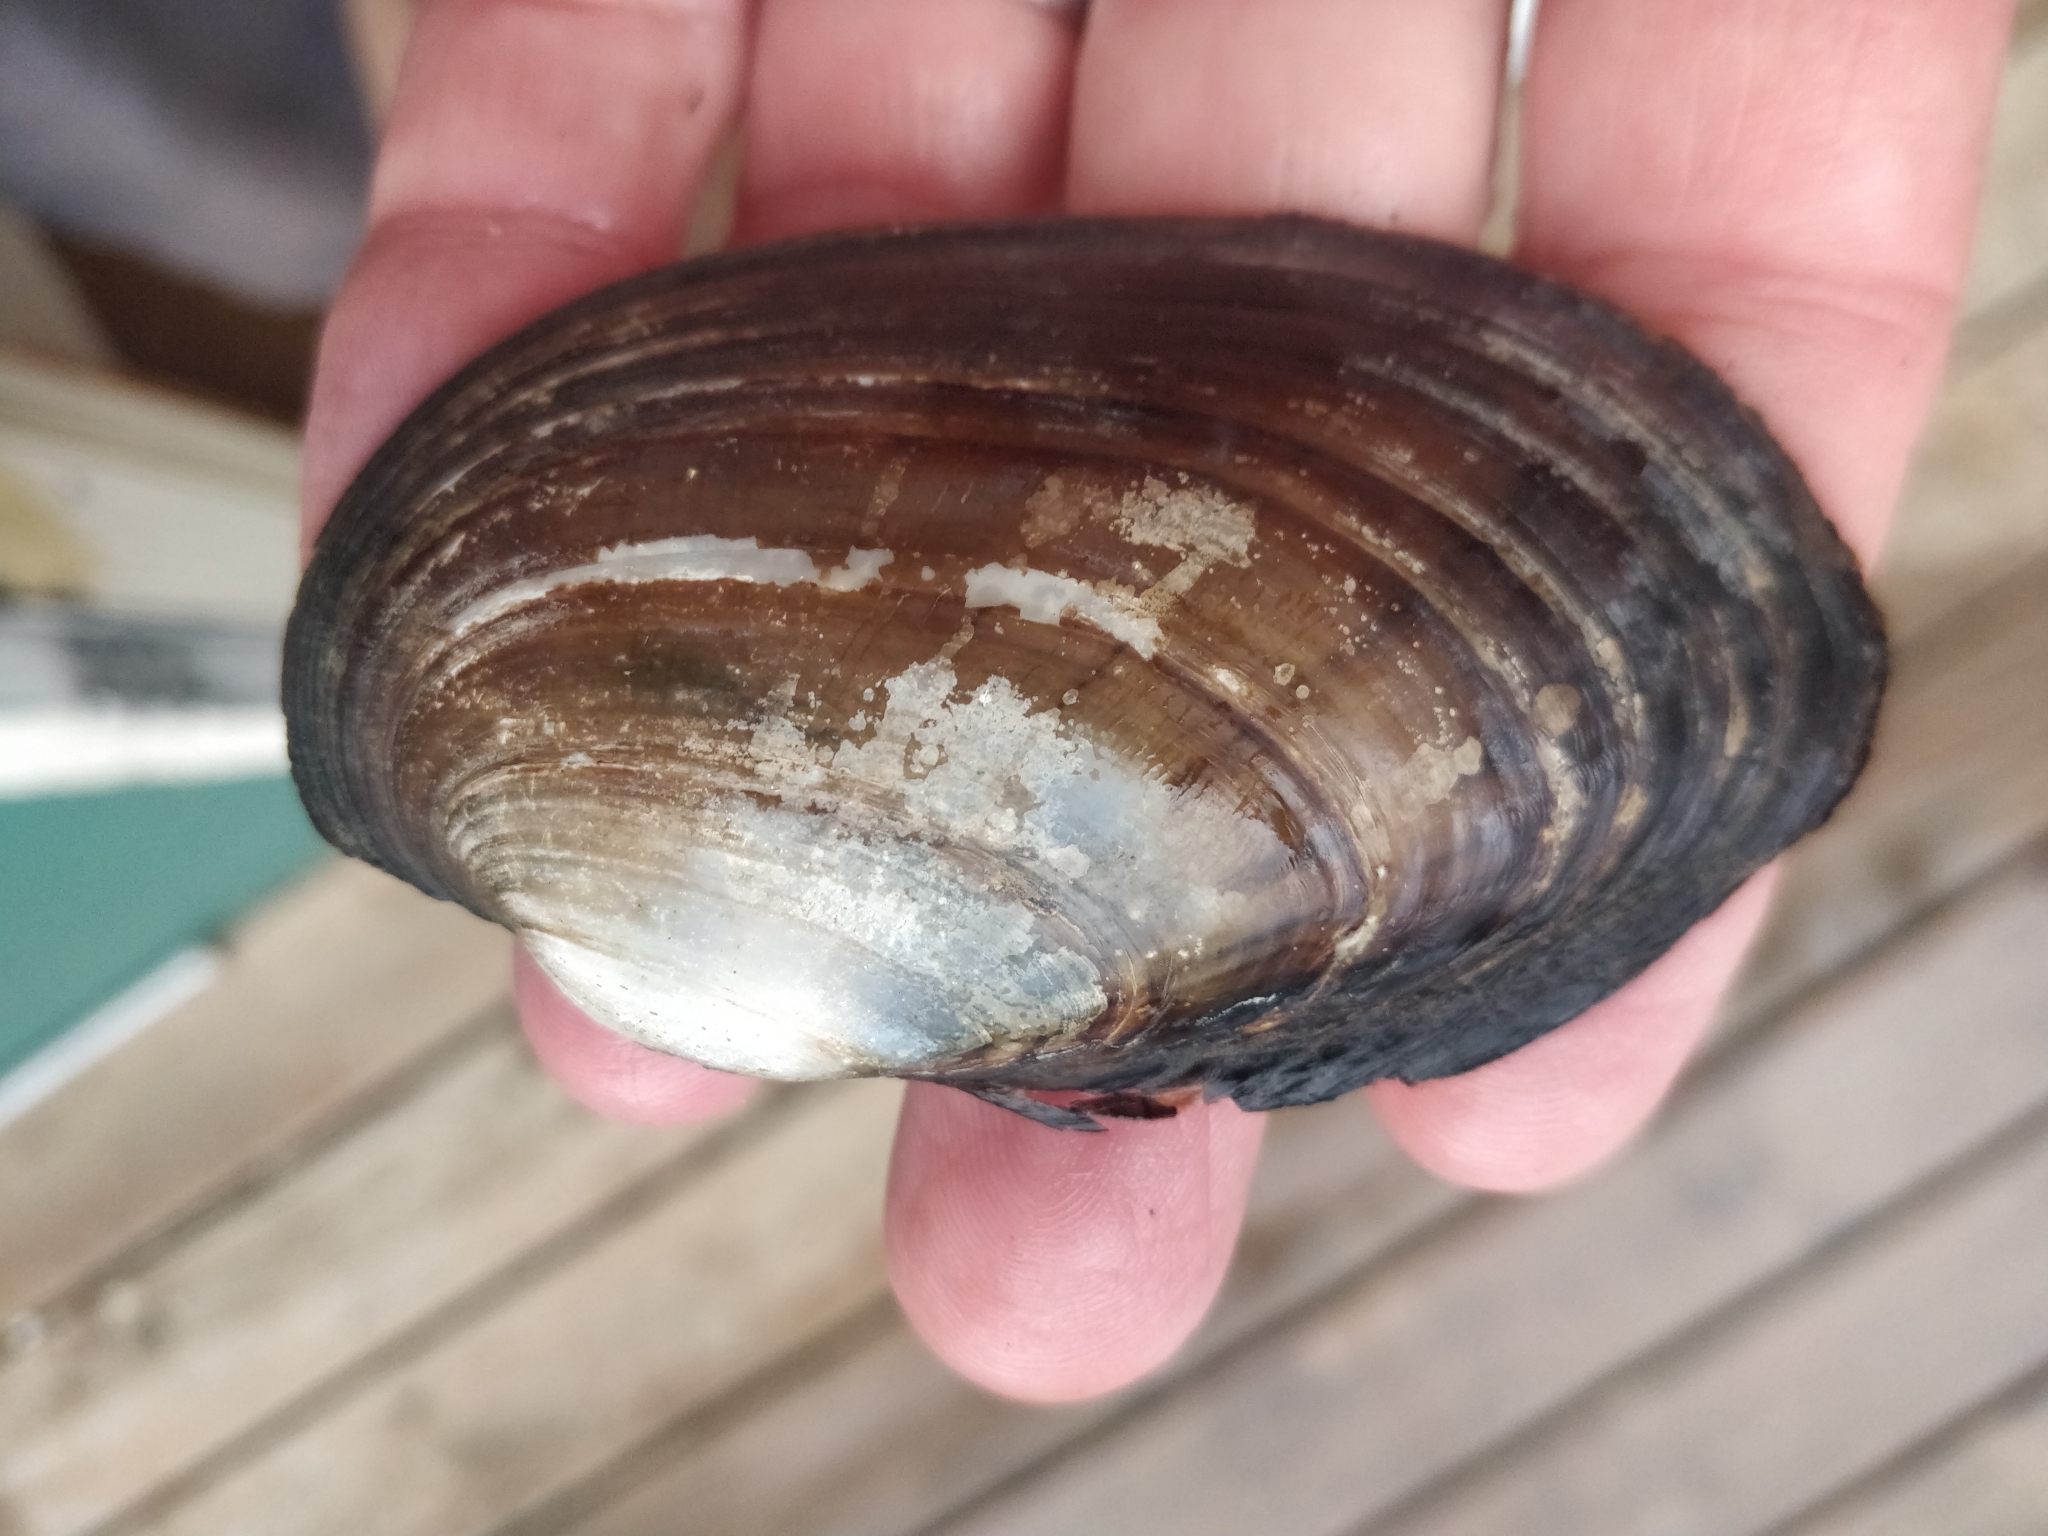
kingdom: Animalia
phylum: Mollusca
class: Bivalvia
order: Unionida
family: Unionidae
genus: Lampsilis
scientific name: Lampsilis siliquoidea
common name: Fatmucket
